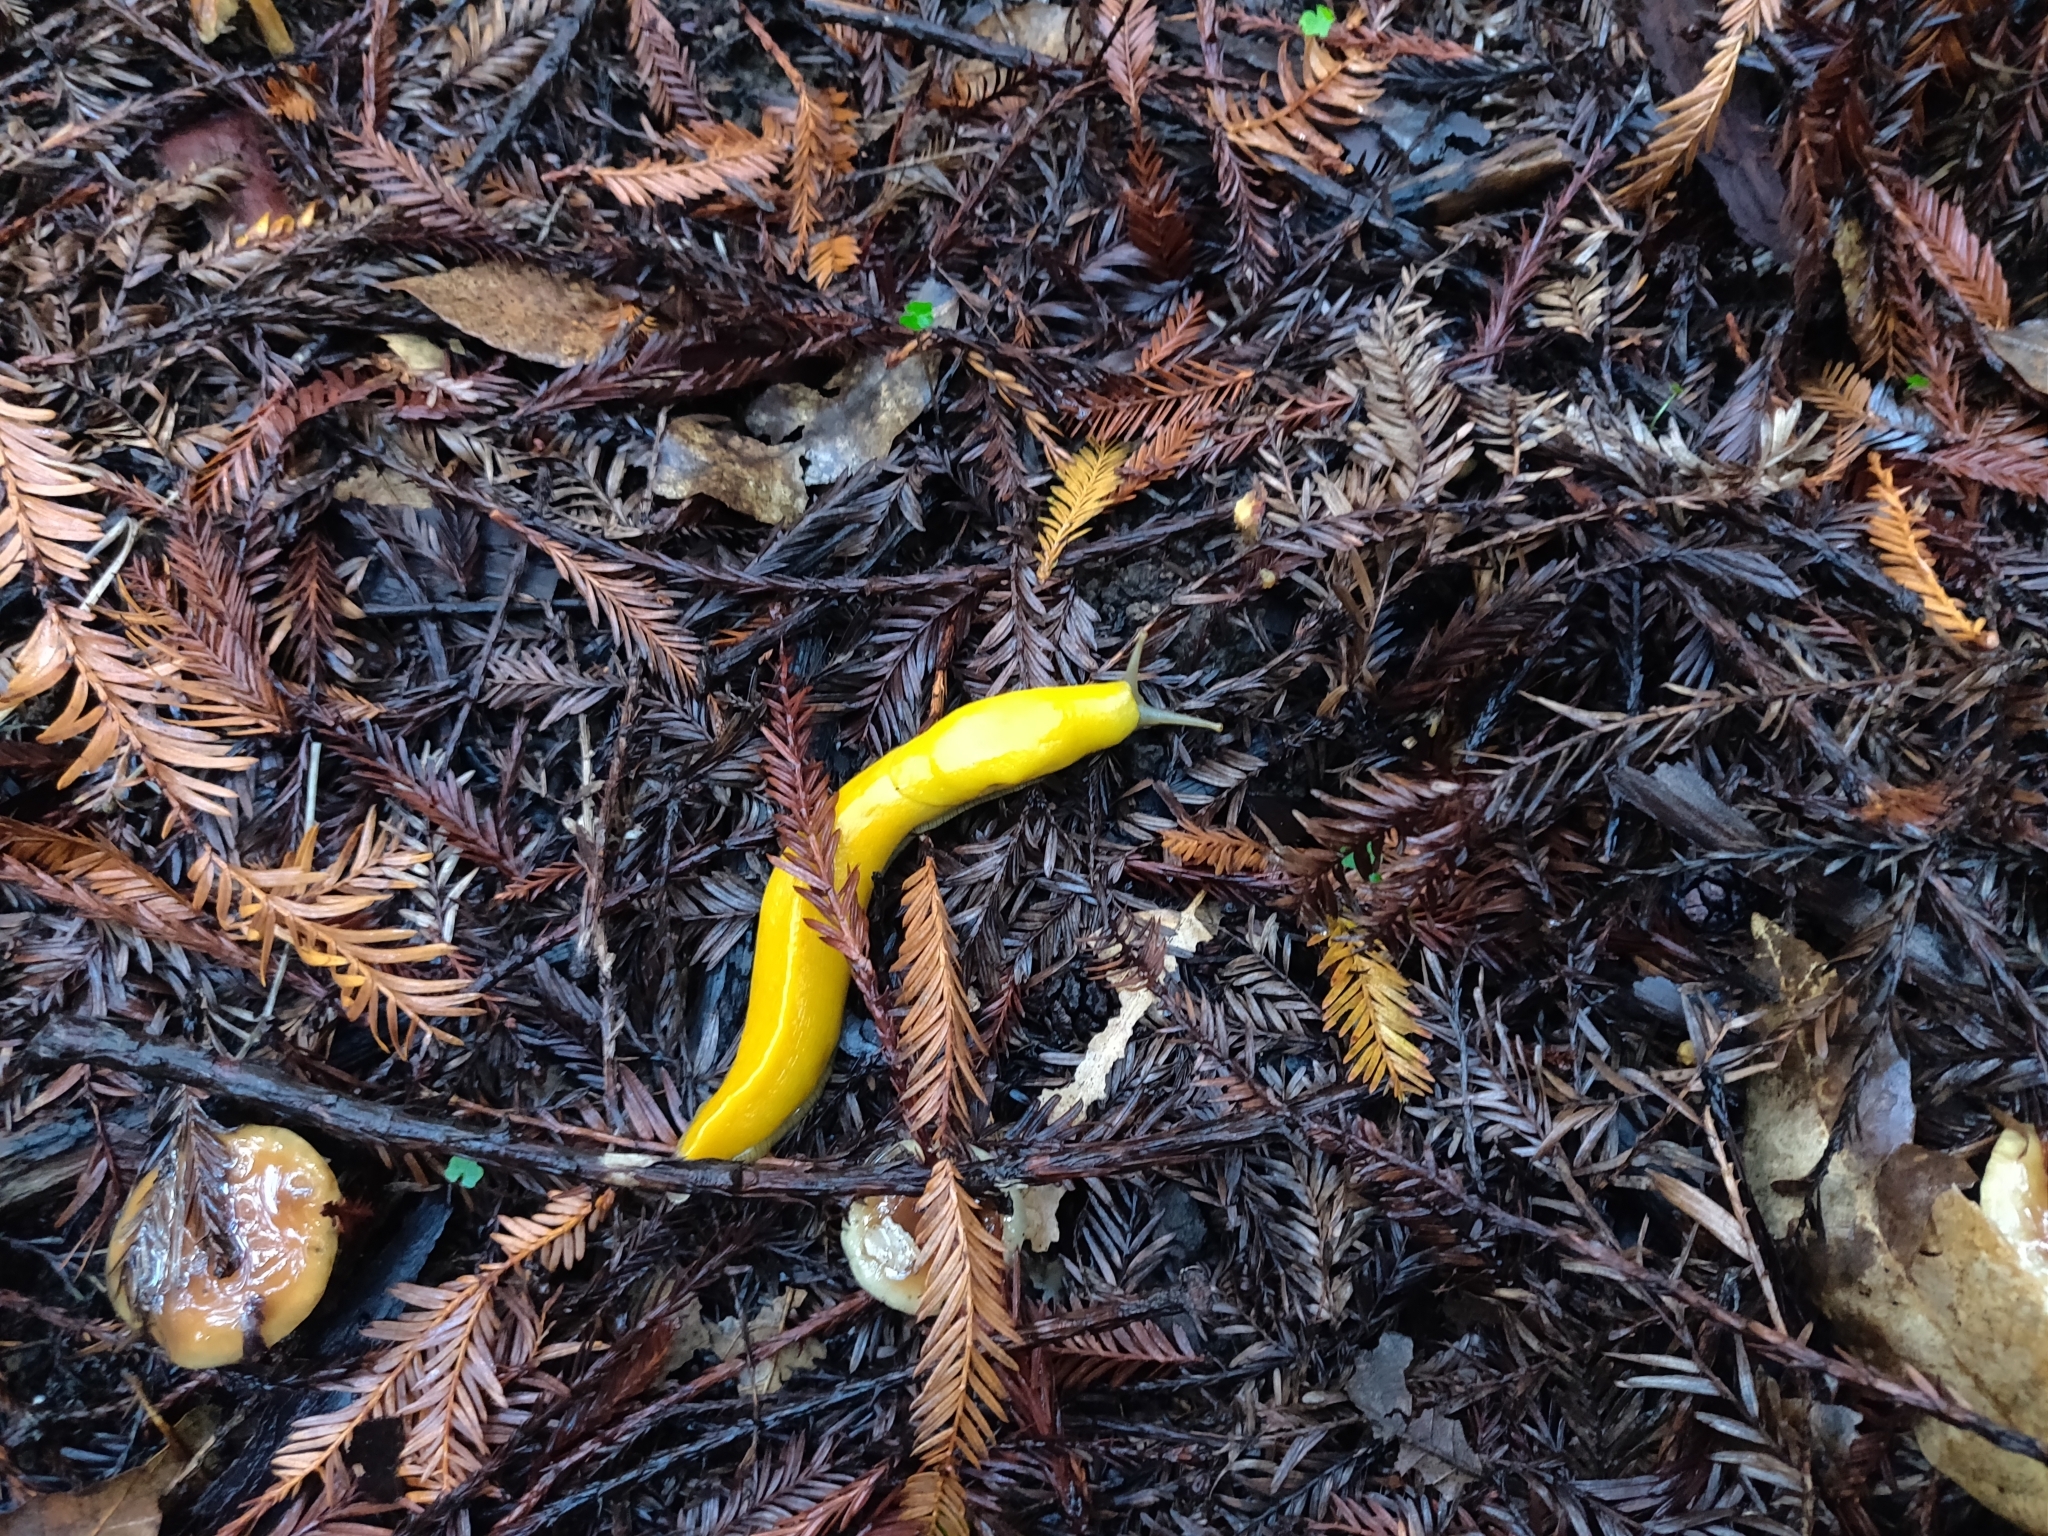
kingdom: Animalia
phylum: Mollusca
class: Gastropoda
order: Stylommatophora
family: Ariolimacidae
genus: Ariolimax
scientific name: Ariolimax californicus
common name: California banana slug
